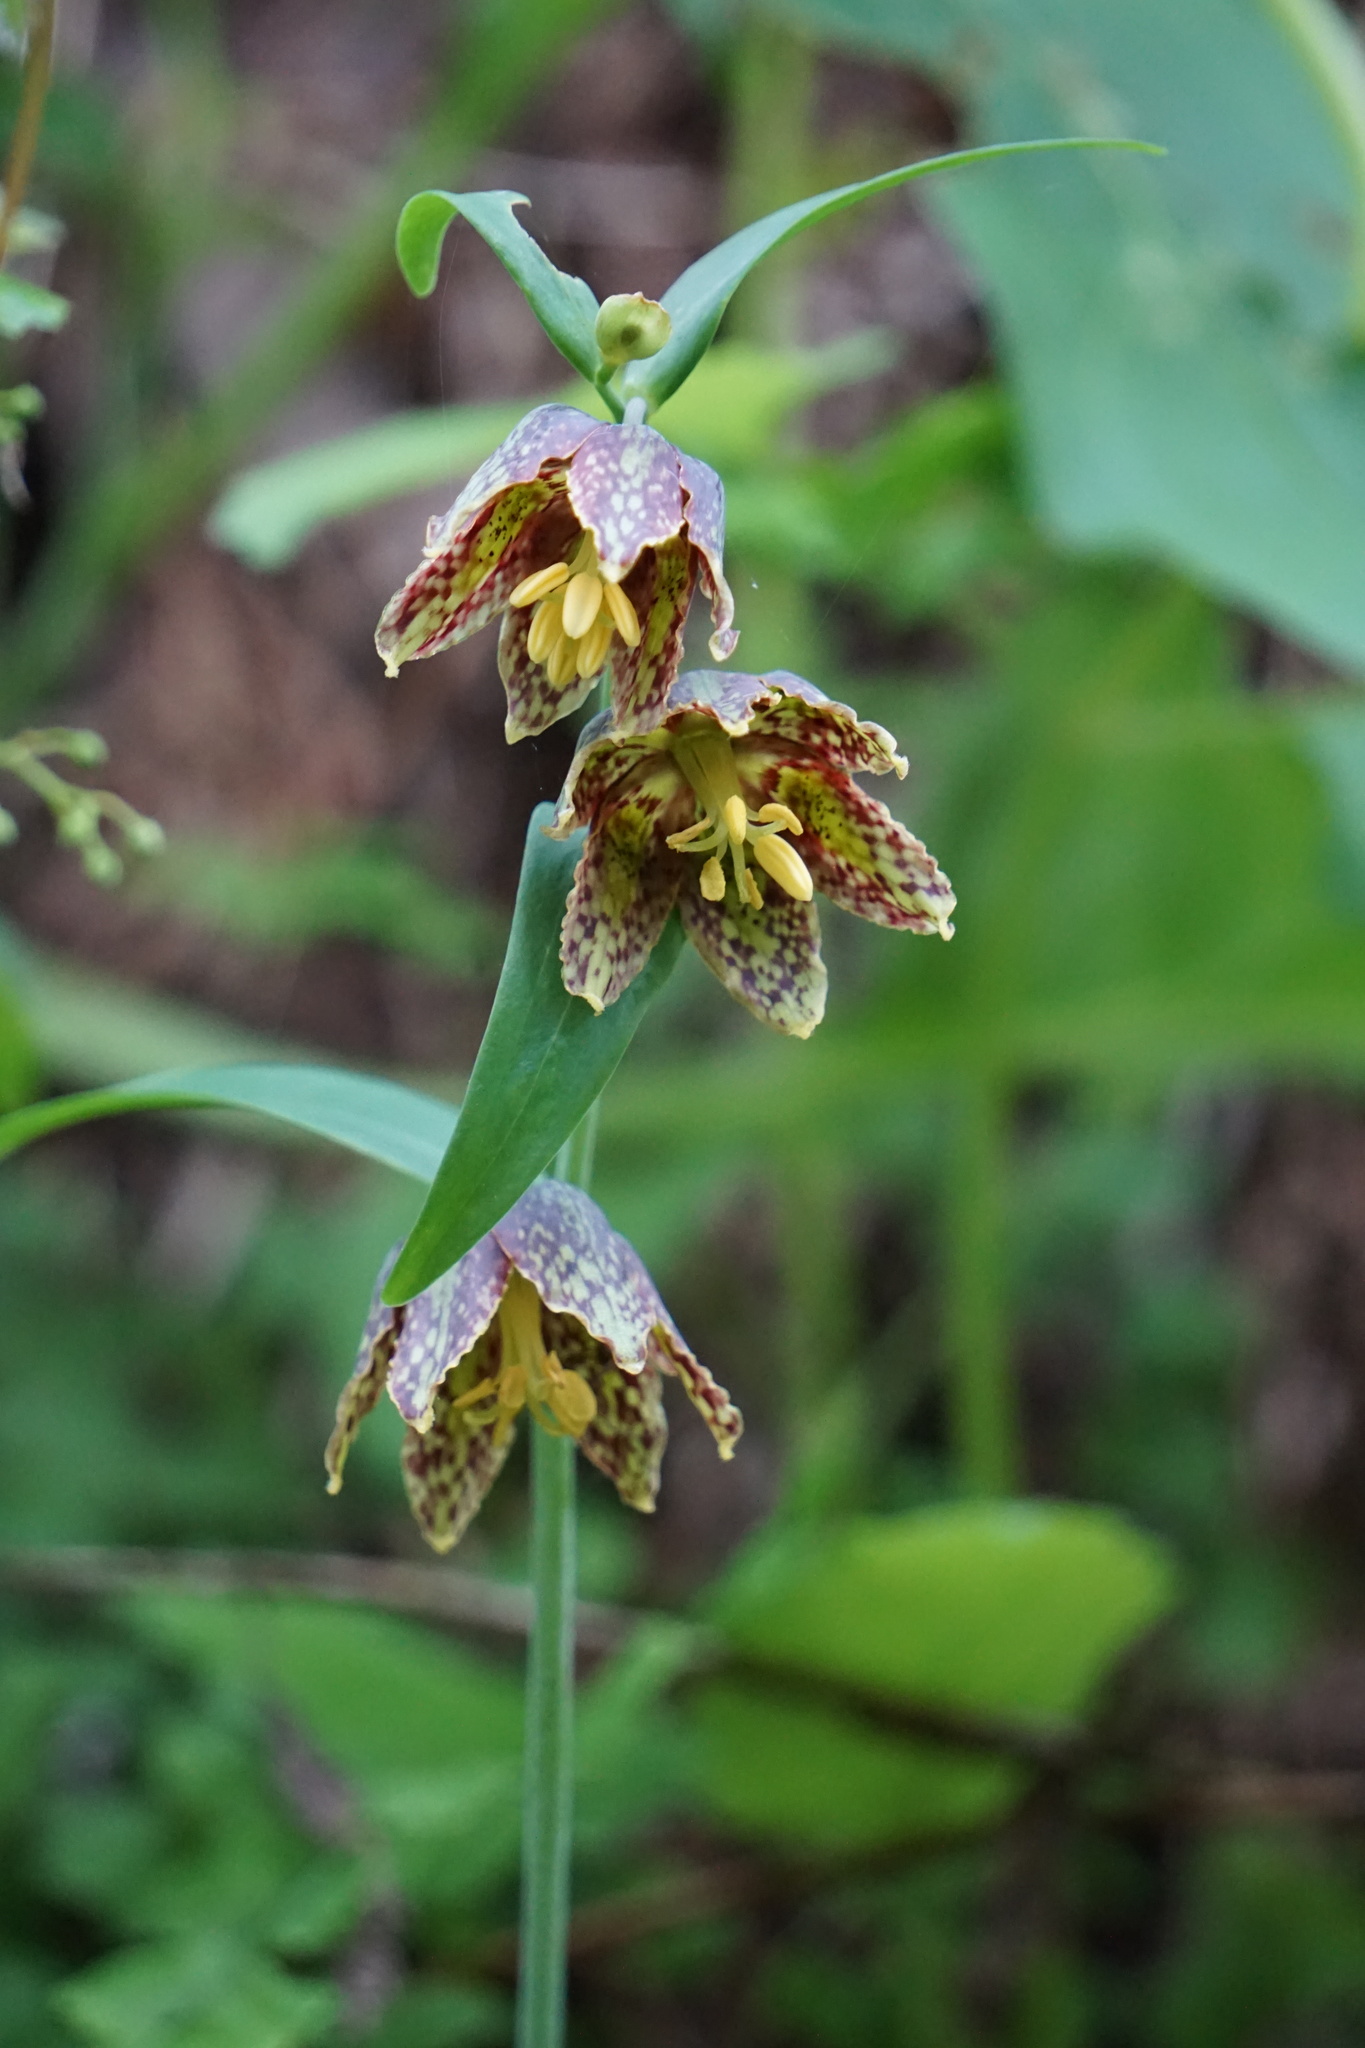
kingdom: Plantae
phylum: Tracheophyta
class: Liliopsida
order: Liliales
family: Liliaceae
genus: Fritillaria
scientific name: Fritillaria affinis
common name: Ojai fritillary
